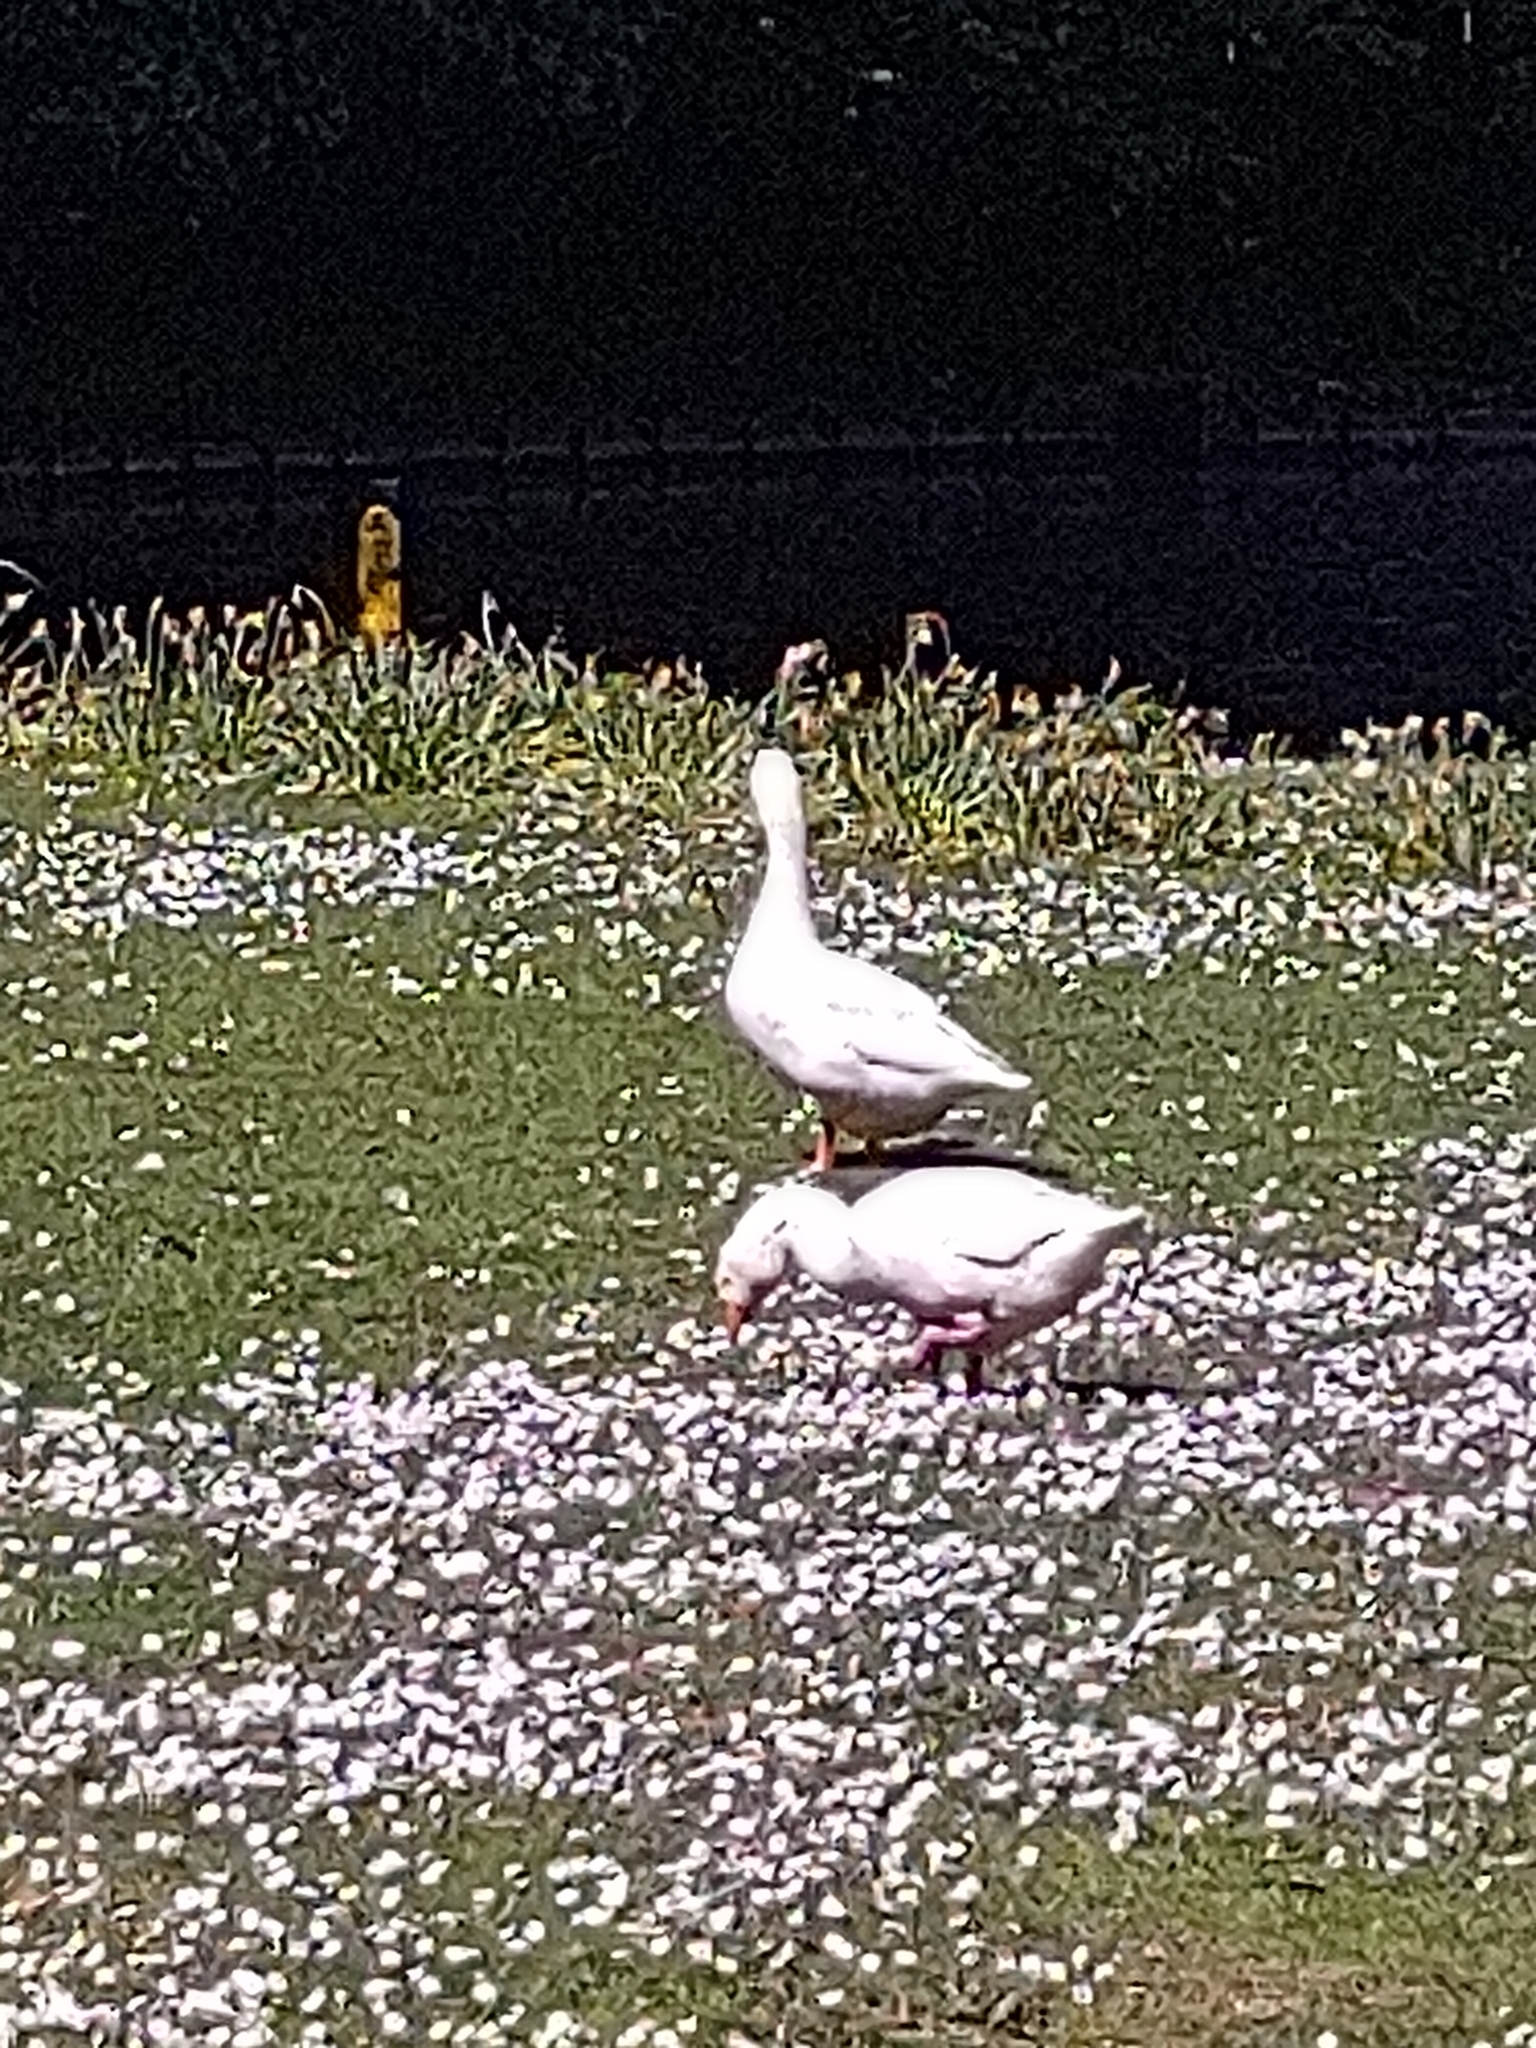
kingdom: Animalia
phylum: Chordata
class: Aves
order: Anseriformes
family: Anatidae
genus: Anser
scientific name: Anser anser
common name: Greylag goose
